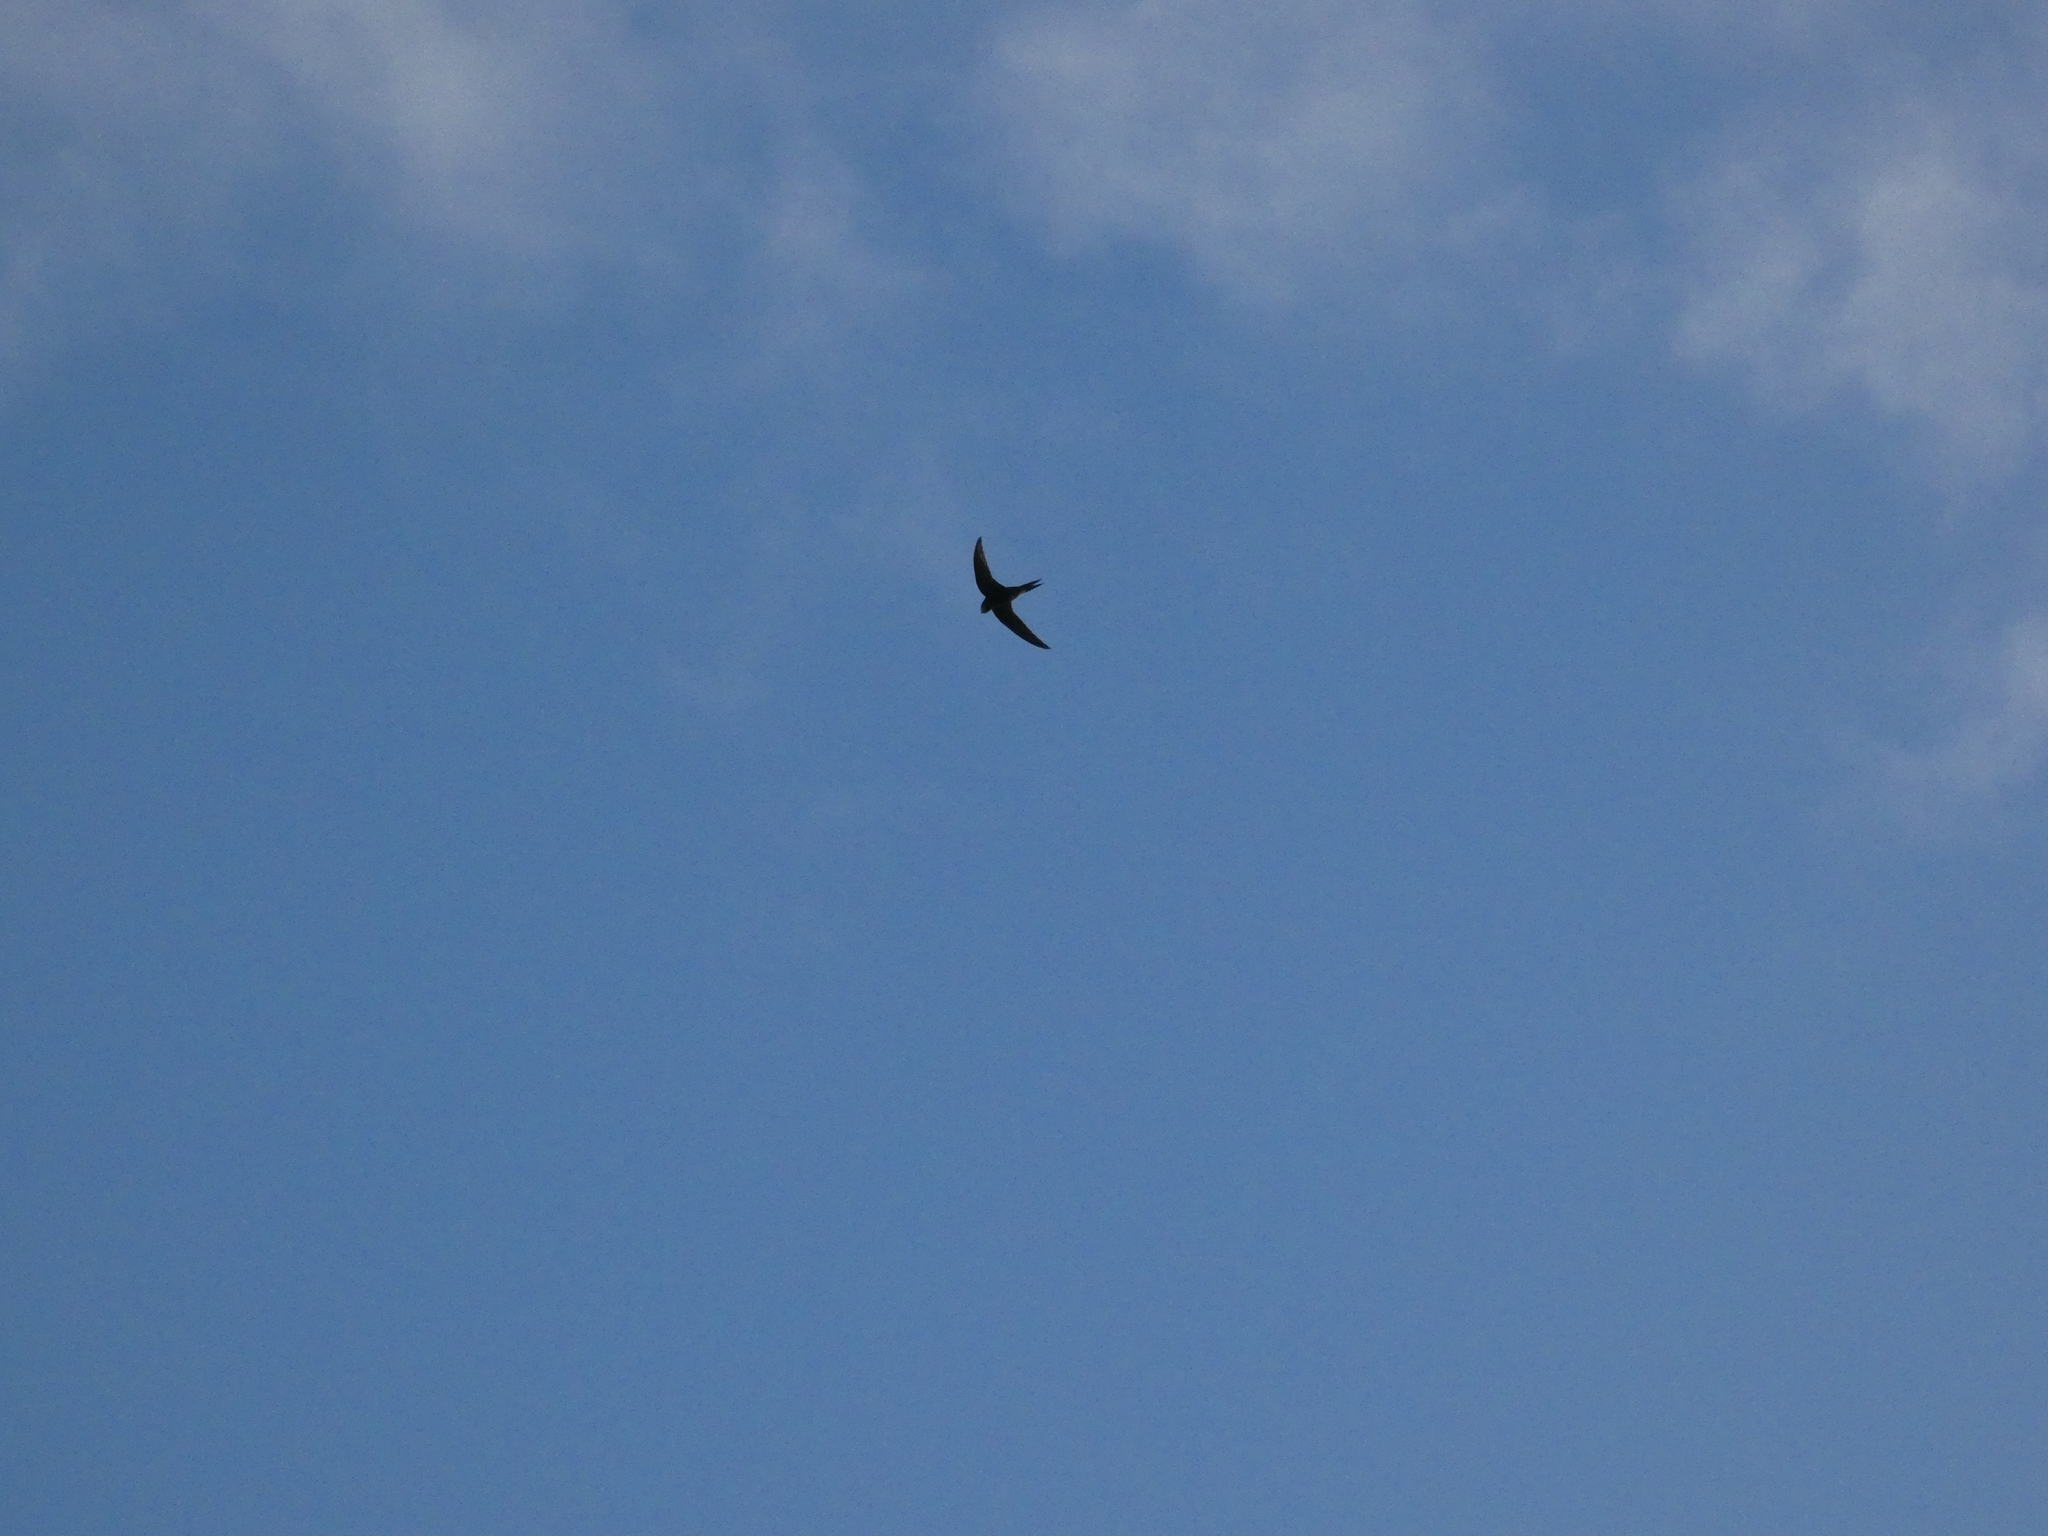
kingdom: Animalia
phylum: Chordata
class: Aves
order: Apodiformes
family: Apodidae
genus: Apus
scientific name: Apus apus
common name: Common swift
